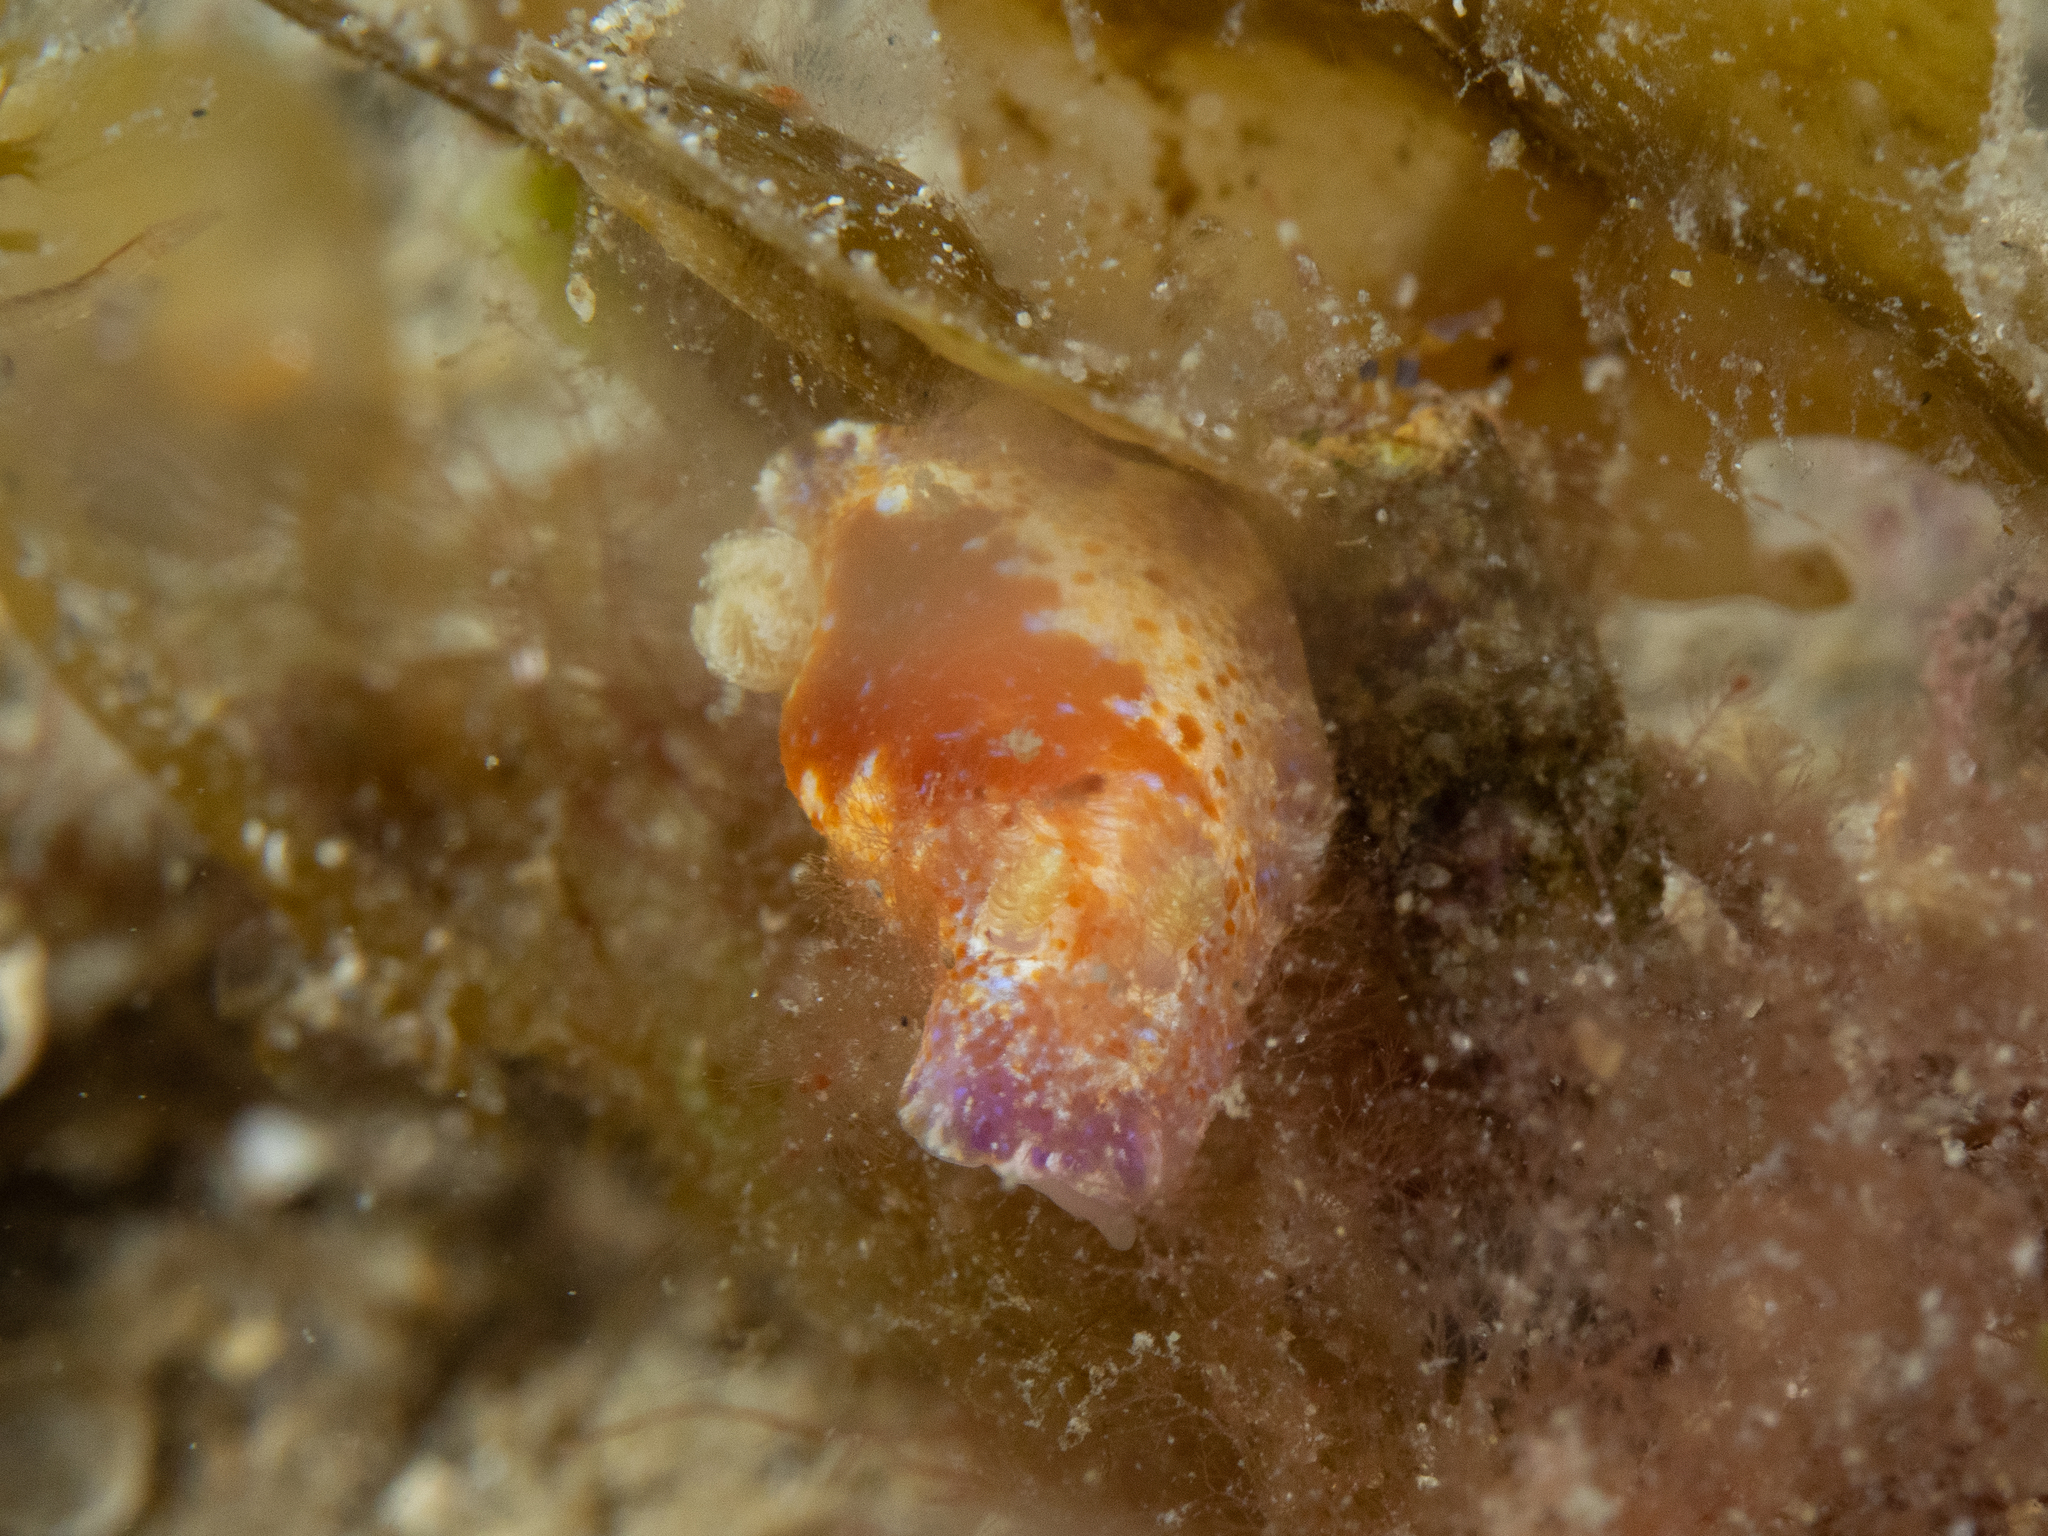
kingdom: Animalia
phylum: Mollusca
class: Gastropoda
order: Nudibranchia
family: Chromodorididae
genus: Chromodoris
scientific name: Chromodoris alternata
